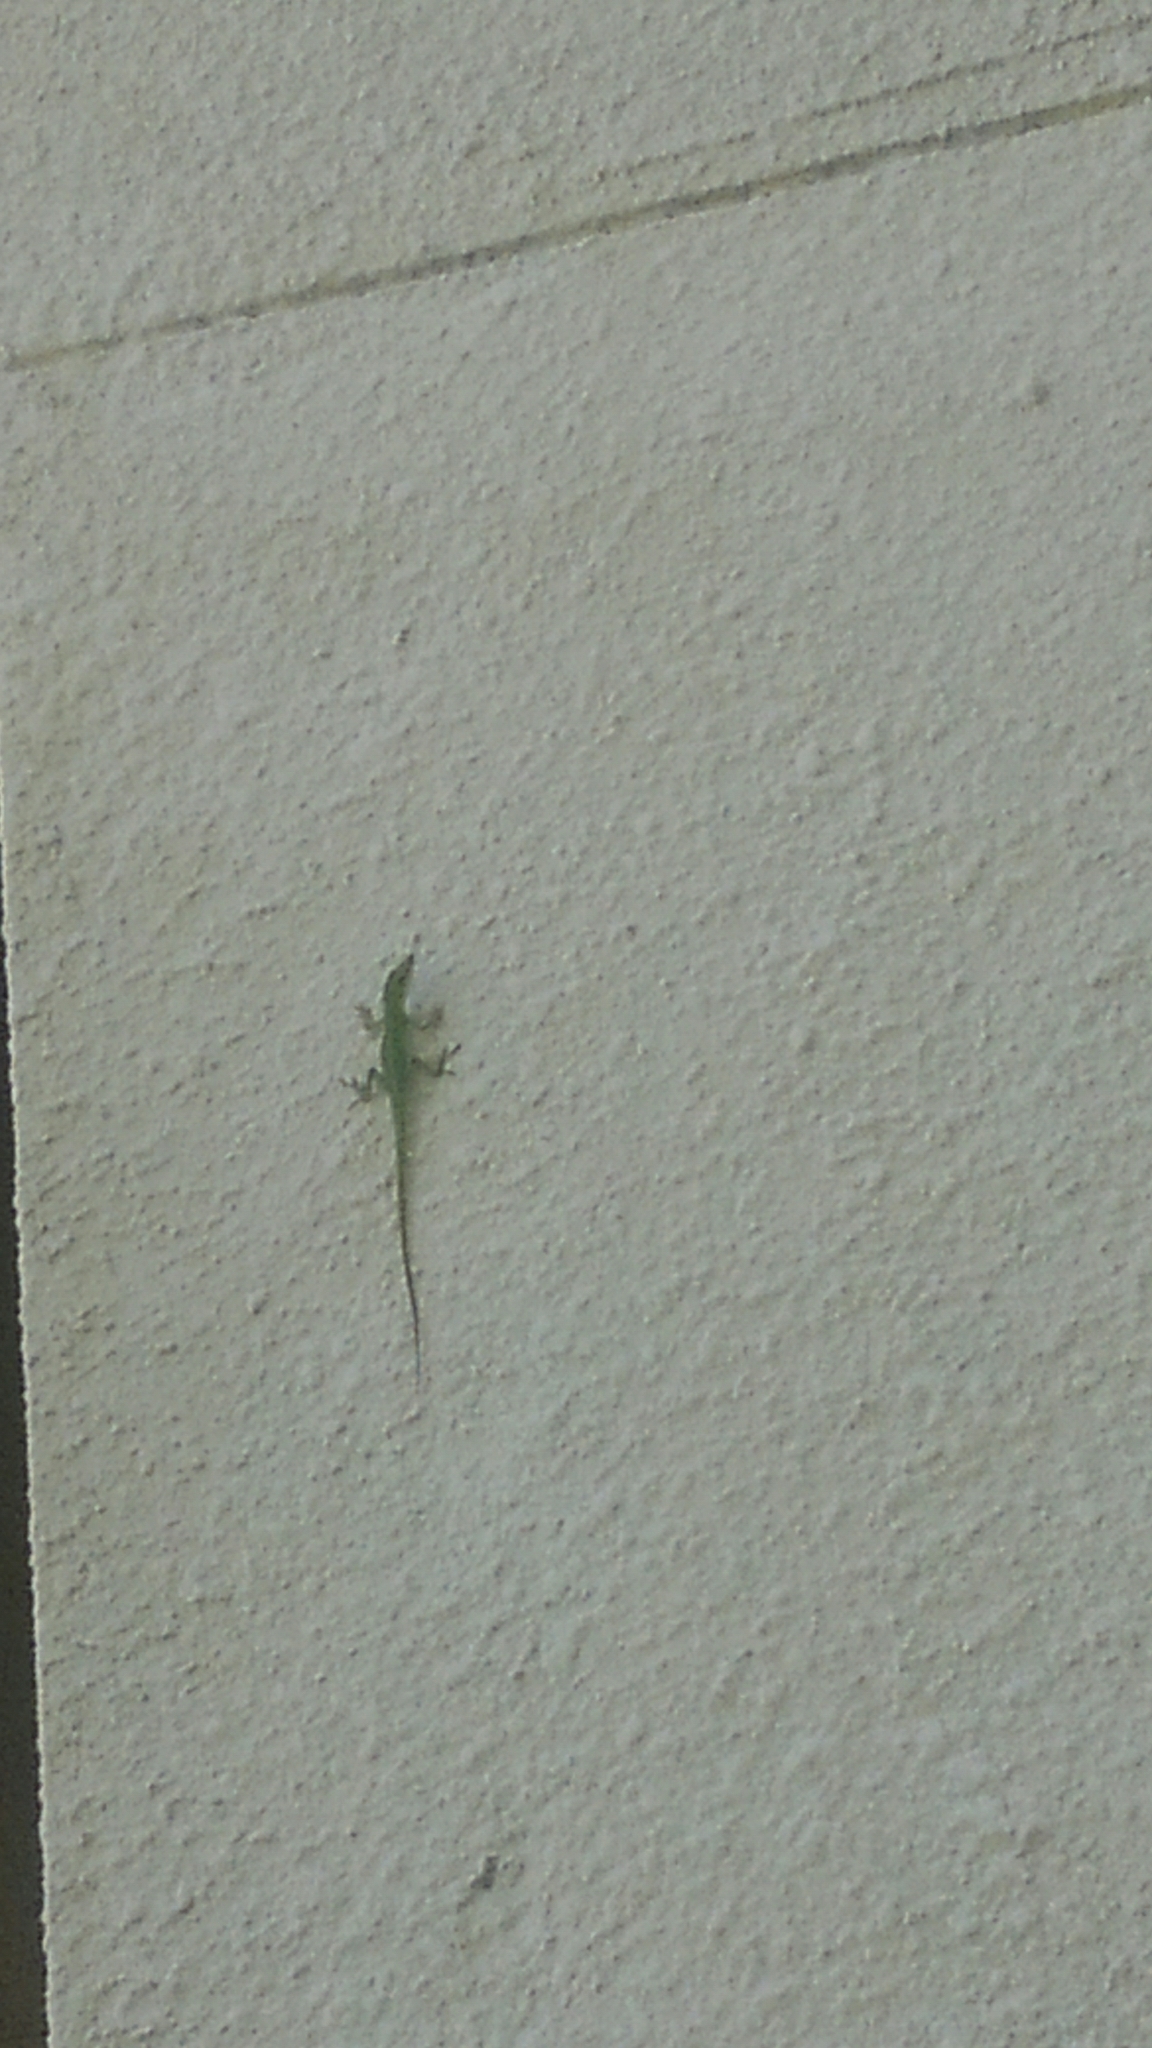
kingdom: Animalia
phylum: Chordata
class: Squamata
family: Dactyloidae
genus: Anolis
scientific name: Anolis carolinensis
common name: Green anole
